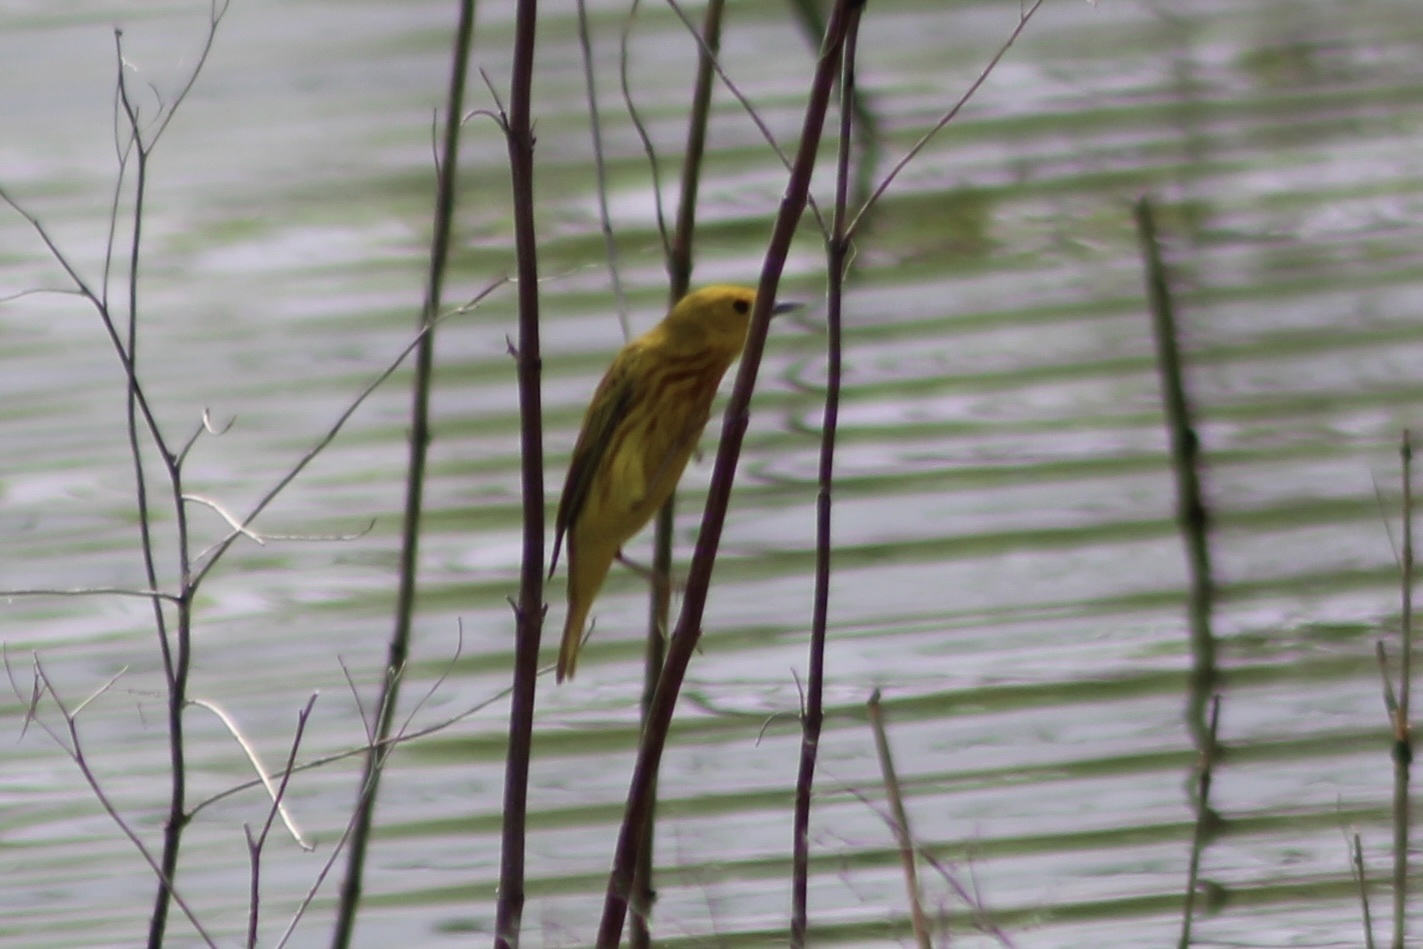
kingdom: Animalia
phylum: Chordata
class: Aves
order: Passeriformes
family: Parulidae
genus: Setophaga
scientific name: Setophaga petechia
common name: Yellow warbler
